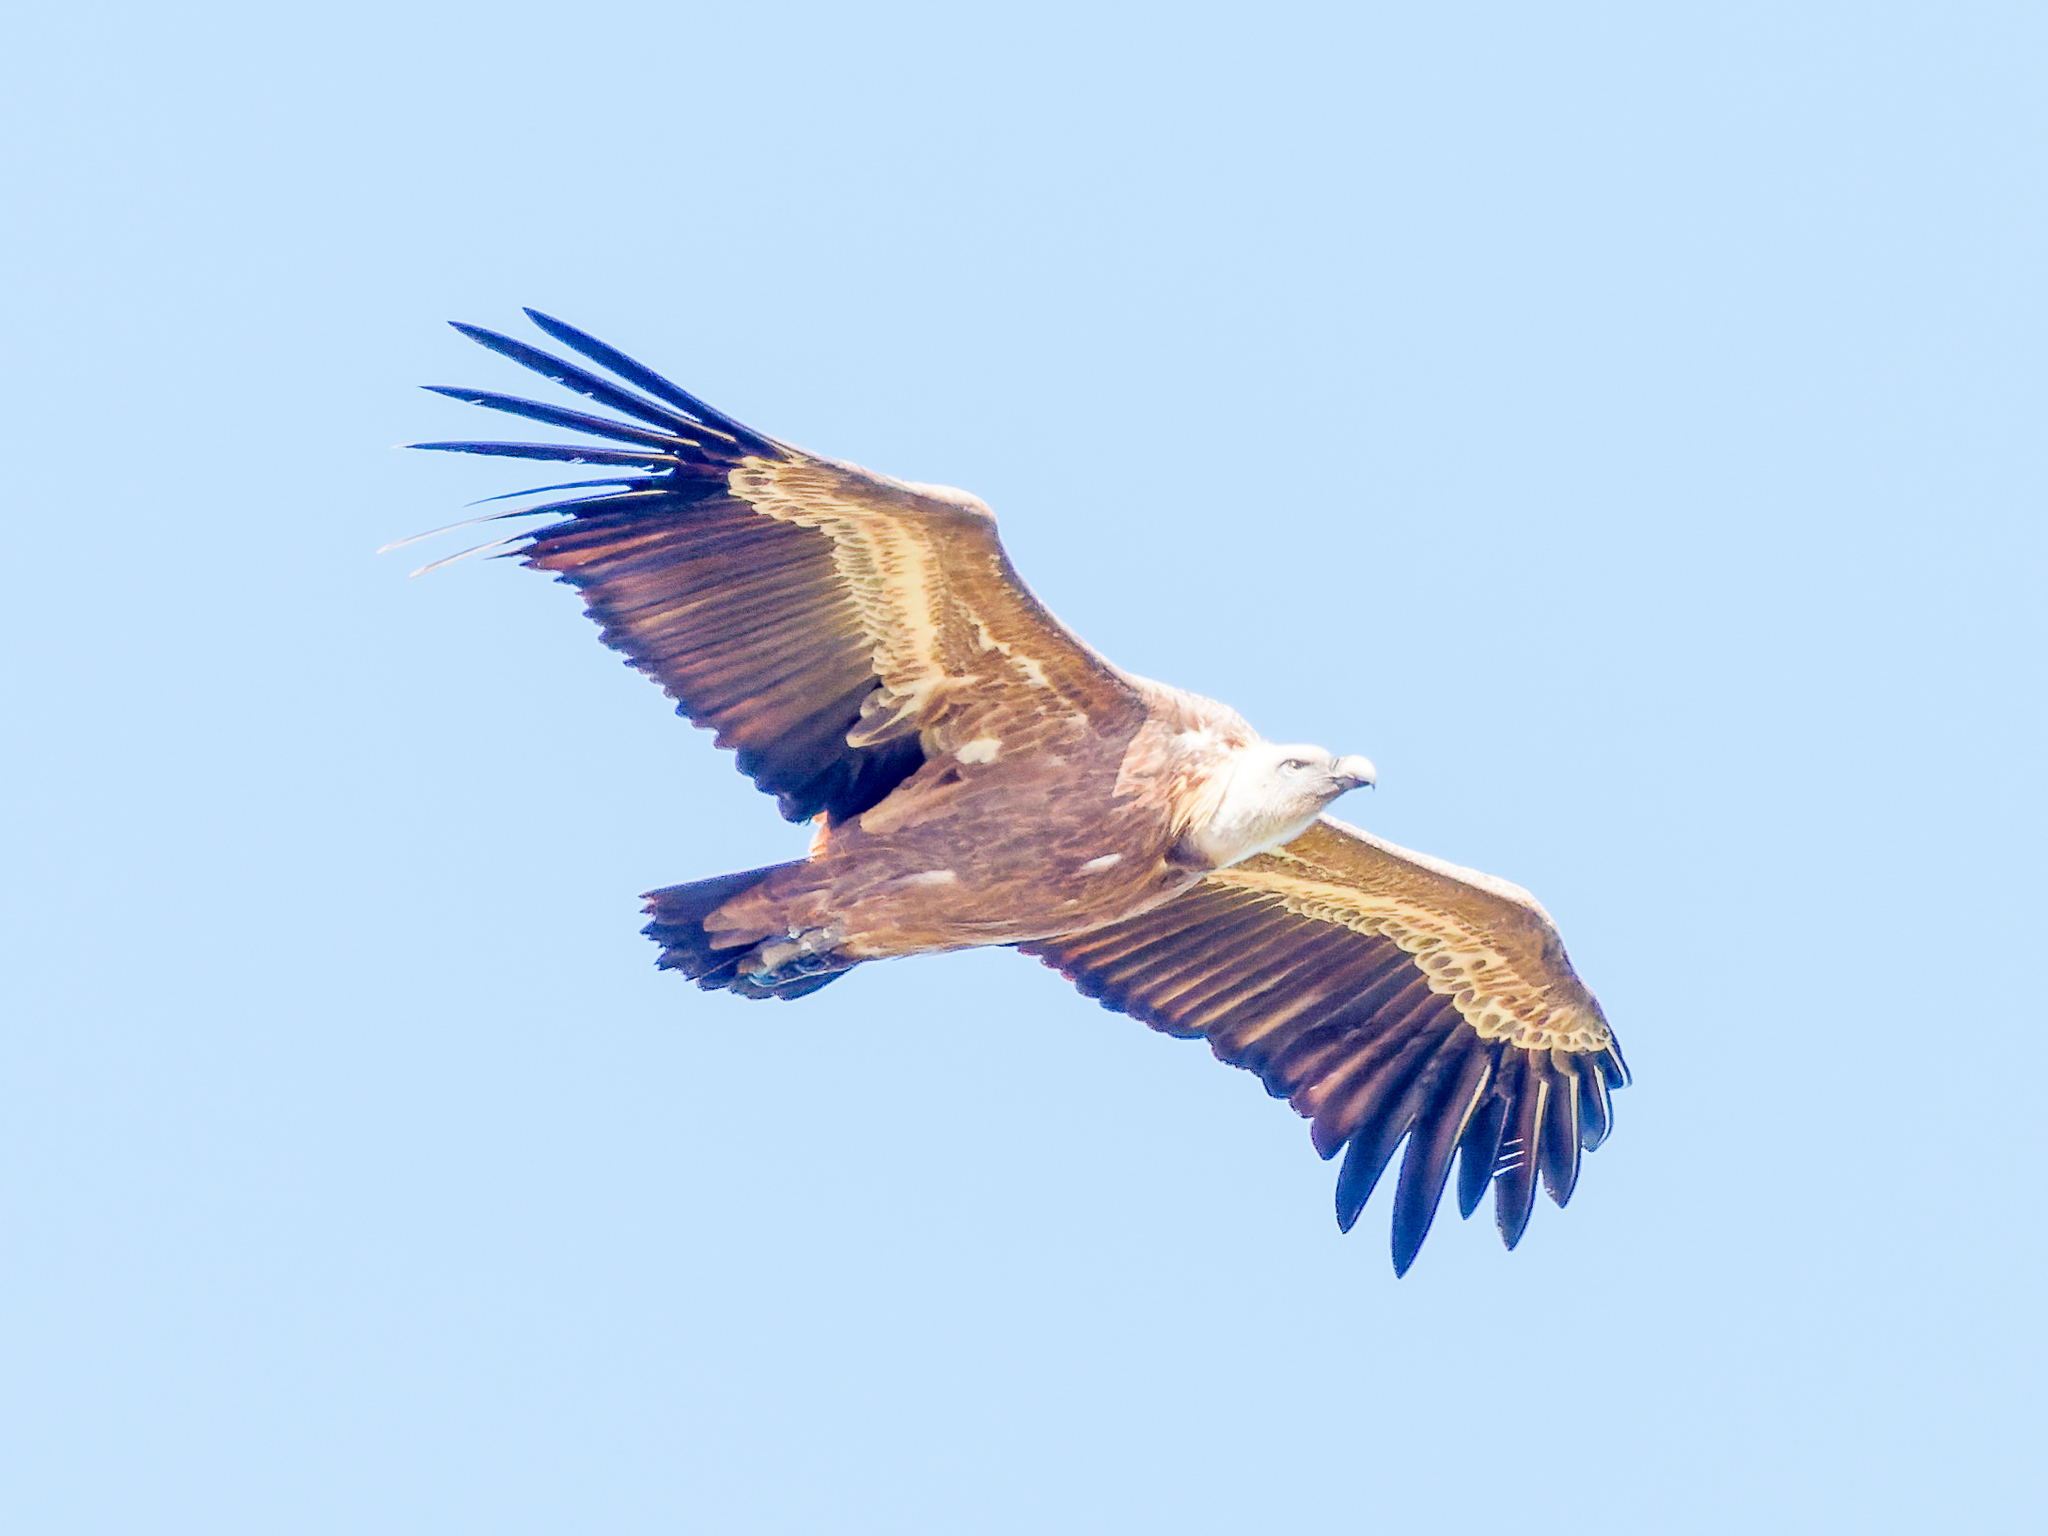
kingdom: Animalia
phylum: Chordata
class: Aves
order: Accipitriformes
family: Accipitridae
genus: Gyps
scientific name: Gyps fulvus
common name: Griffon vulture
